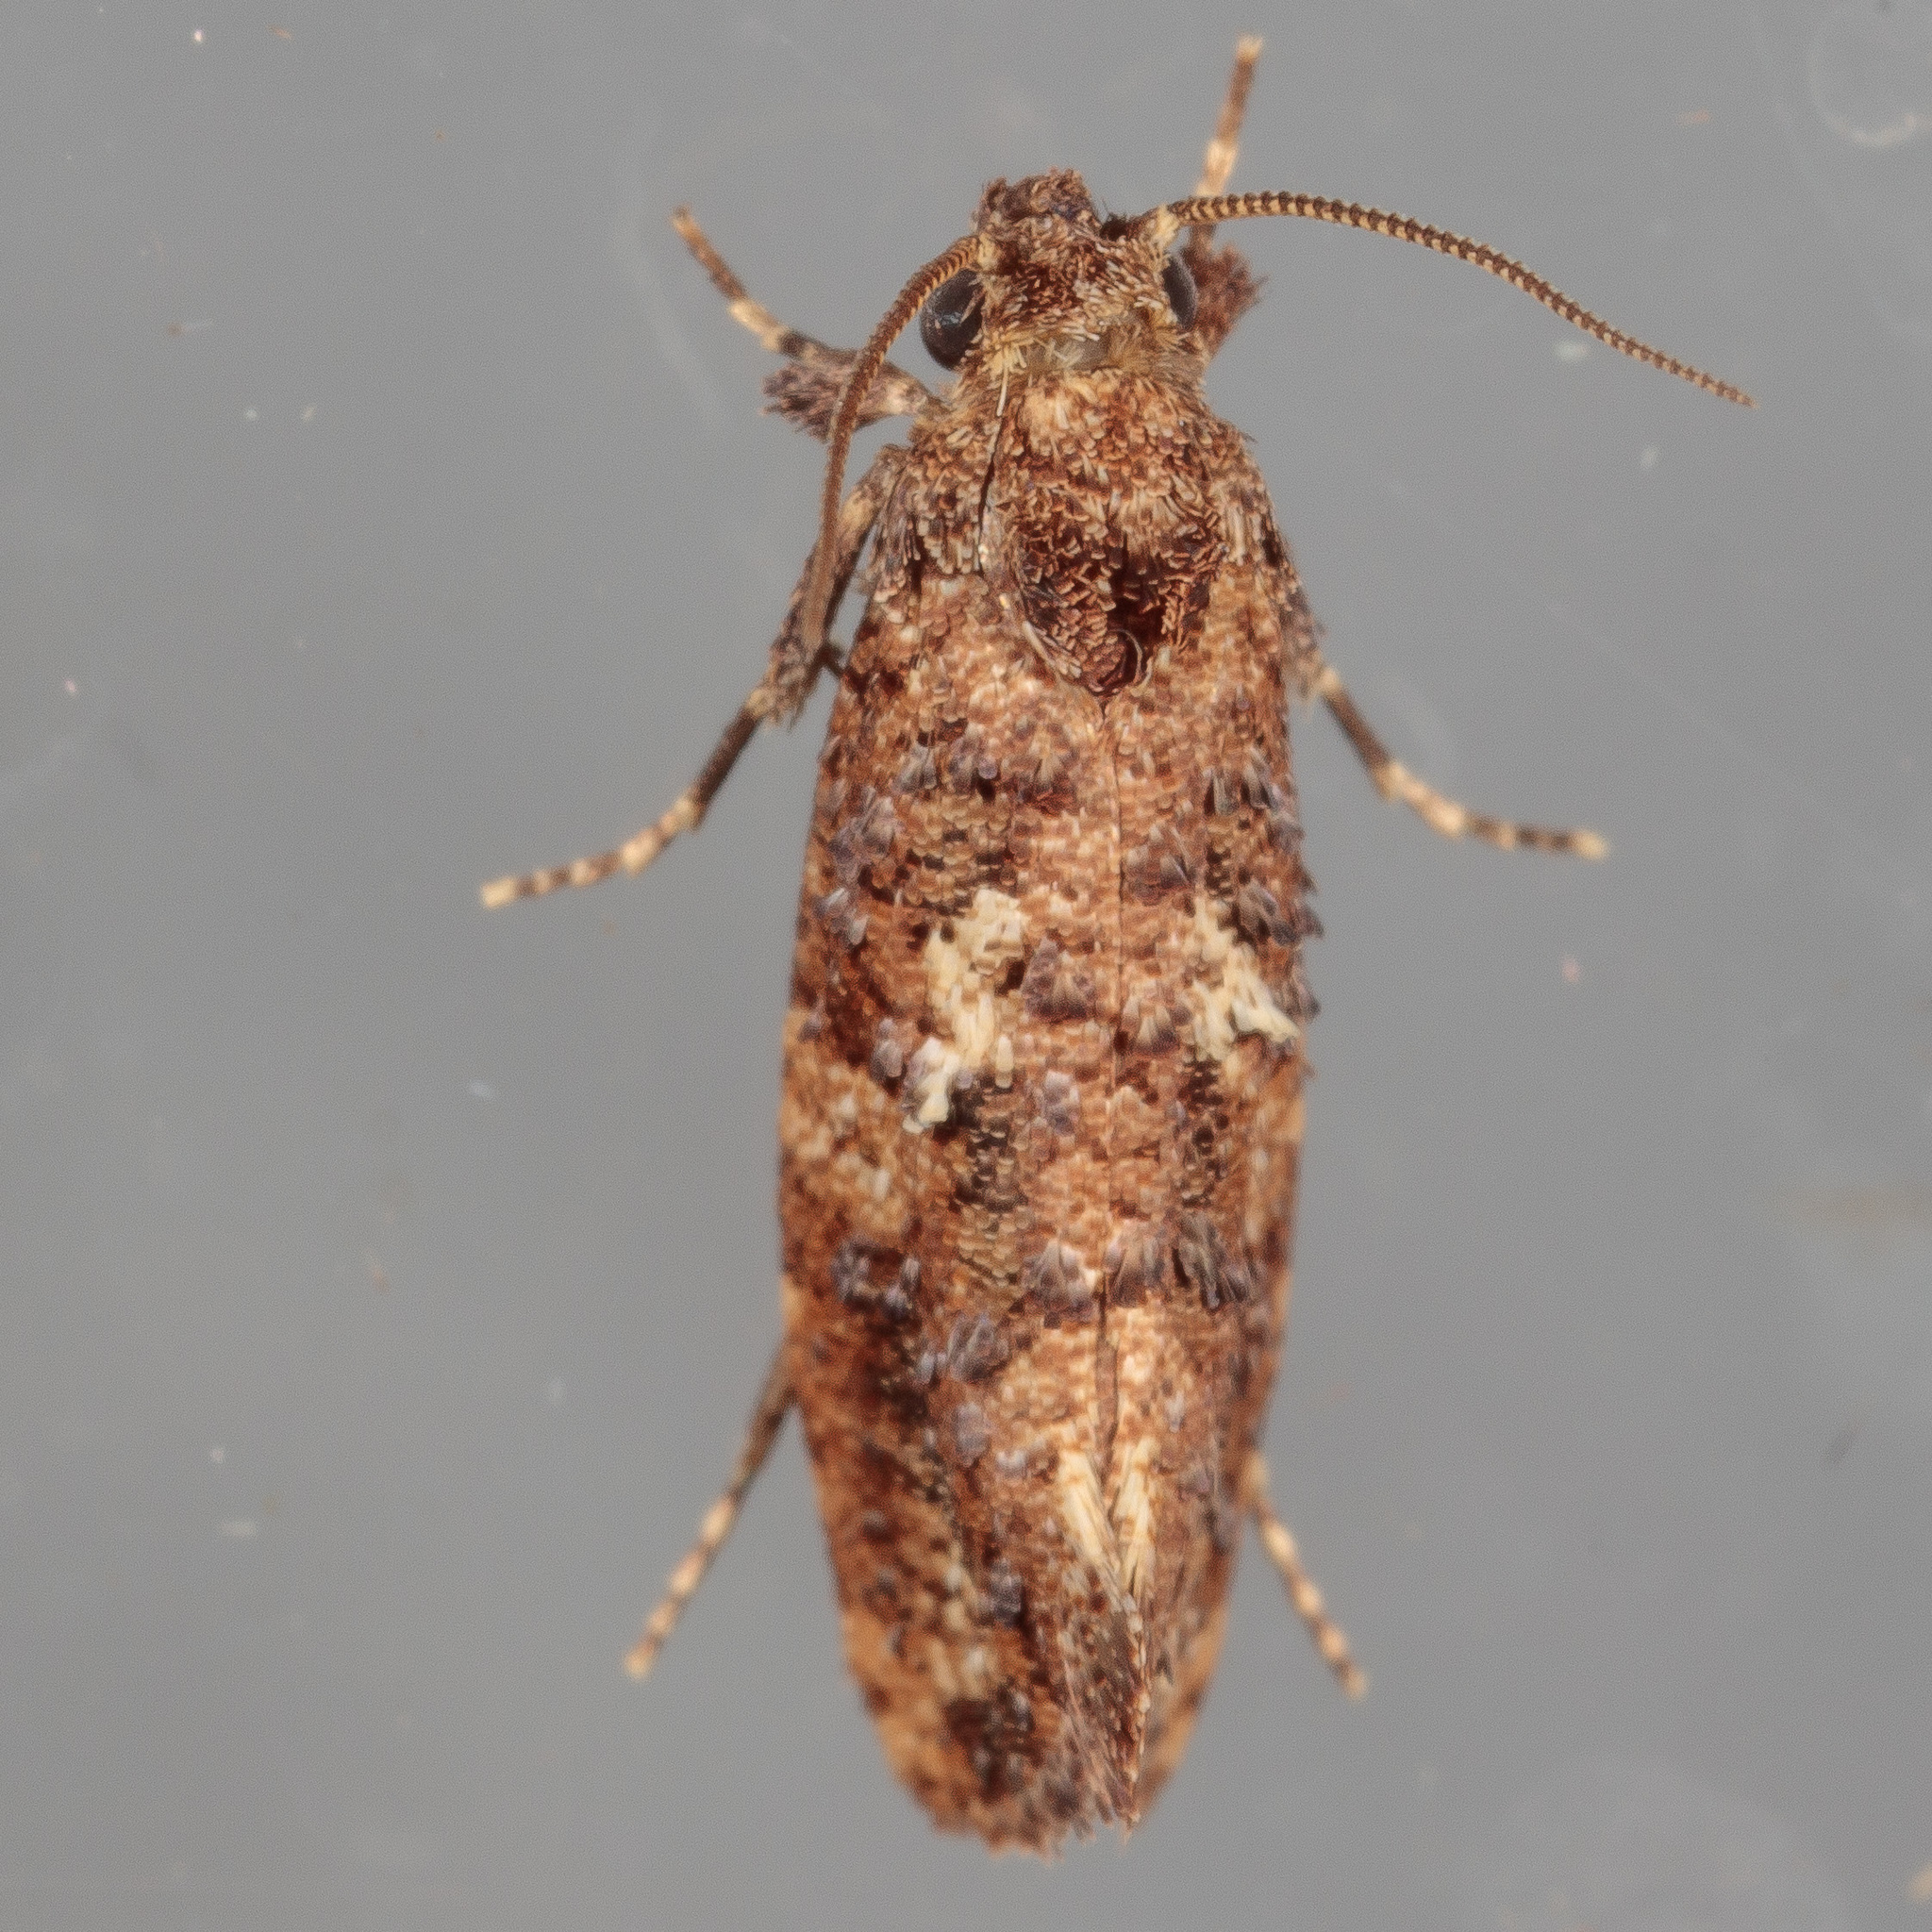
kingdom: Animalia
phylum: Arthropoda
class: Insecta
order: Lepidoptera
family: Tineidae
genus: Acrolophus
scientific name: Acrolophus cressoni
